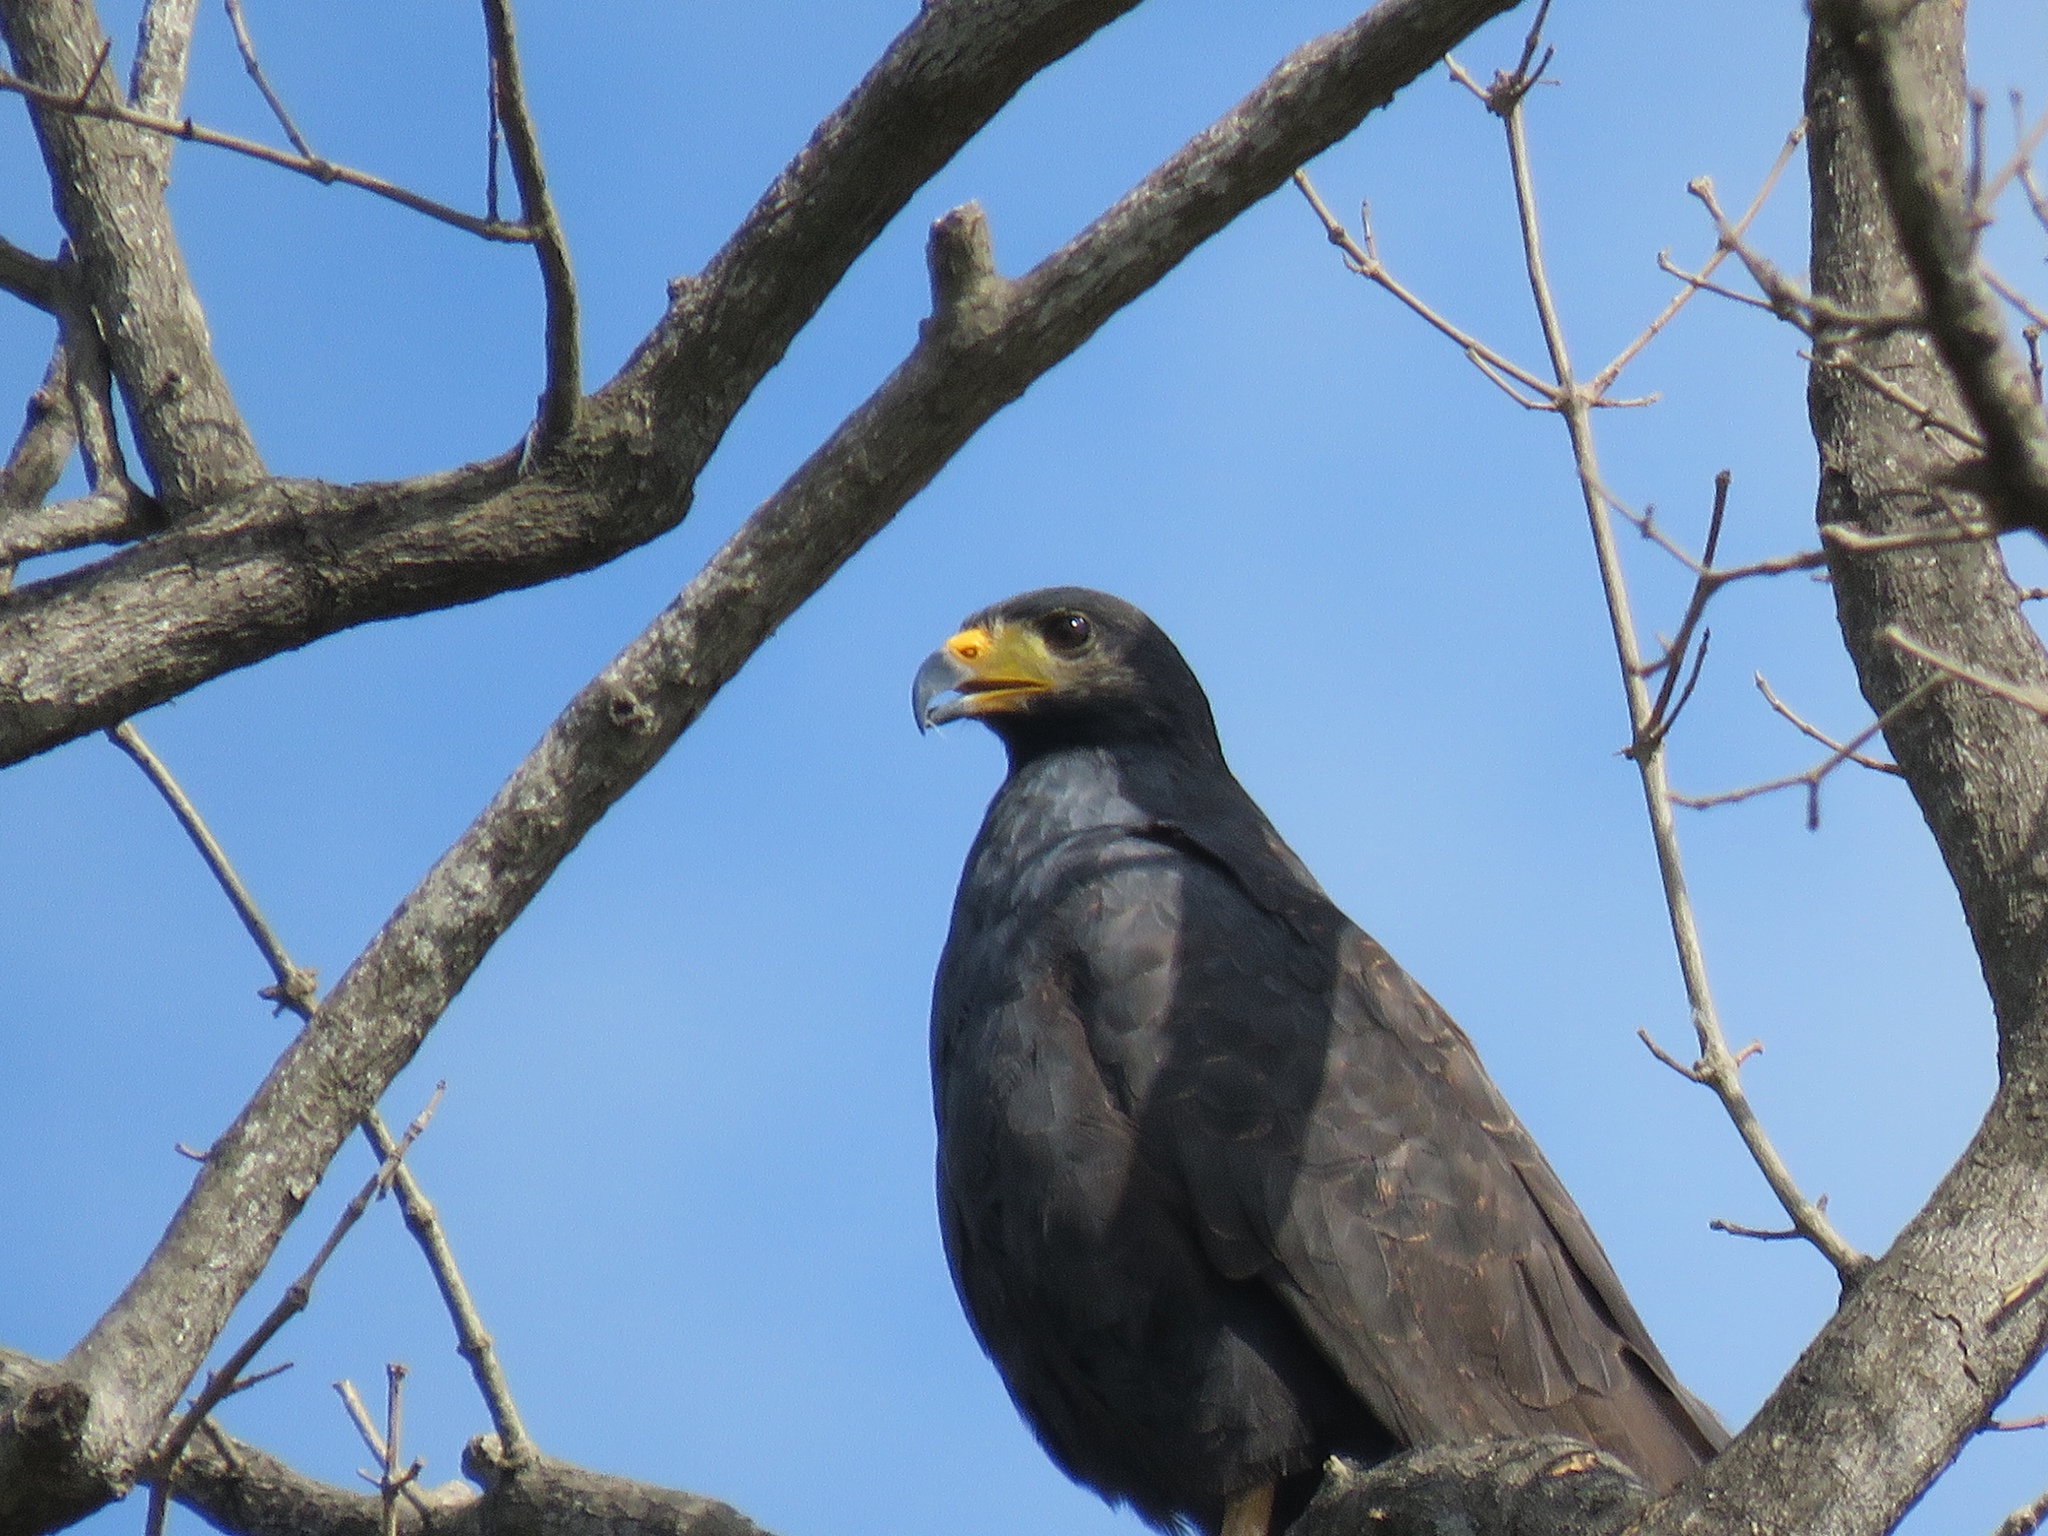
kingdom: Animalia
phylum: Chordata
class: Aves
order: Accipitriformes
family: Accipitridae
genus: Buteogallus
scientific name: Buteogallus anthracinus
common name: Common black hawk
